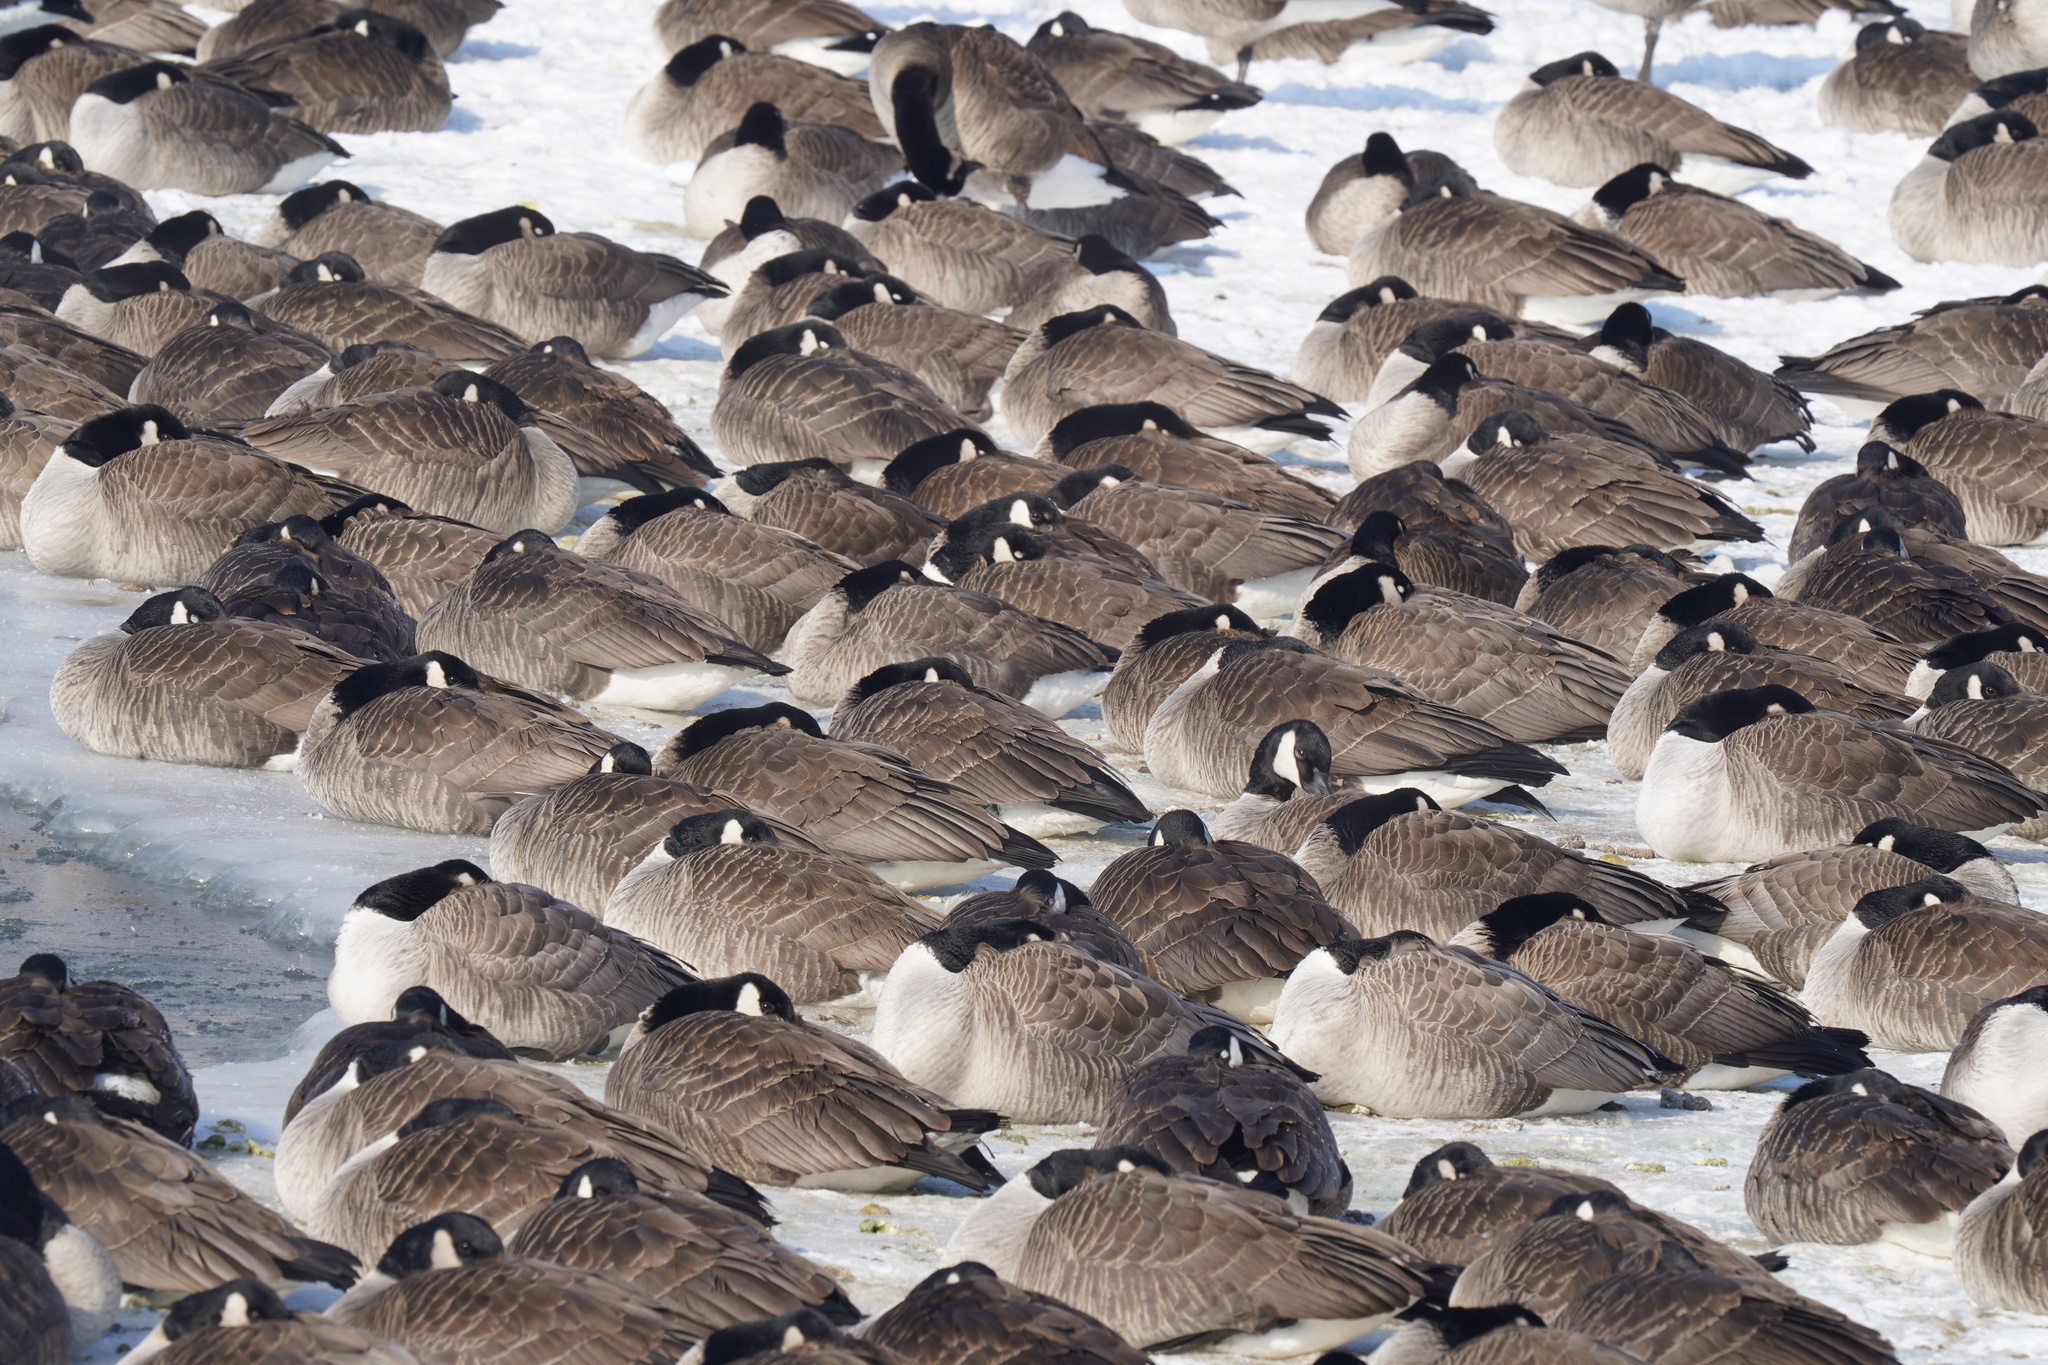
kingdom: Animalia
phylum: Chordata
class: Aves
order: Anseriformes
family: Anatidae
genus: Branta
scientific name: Branta canadensis
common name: Canada goose
